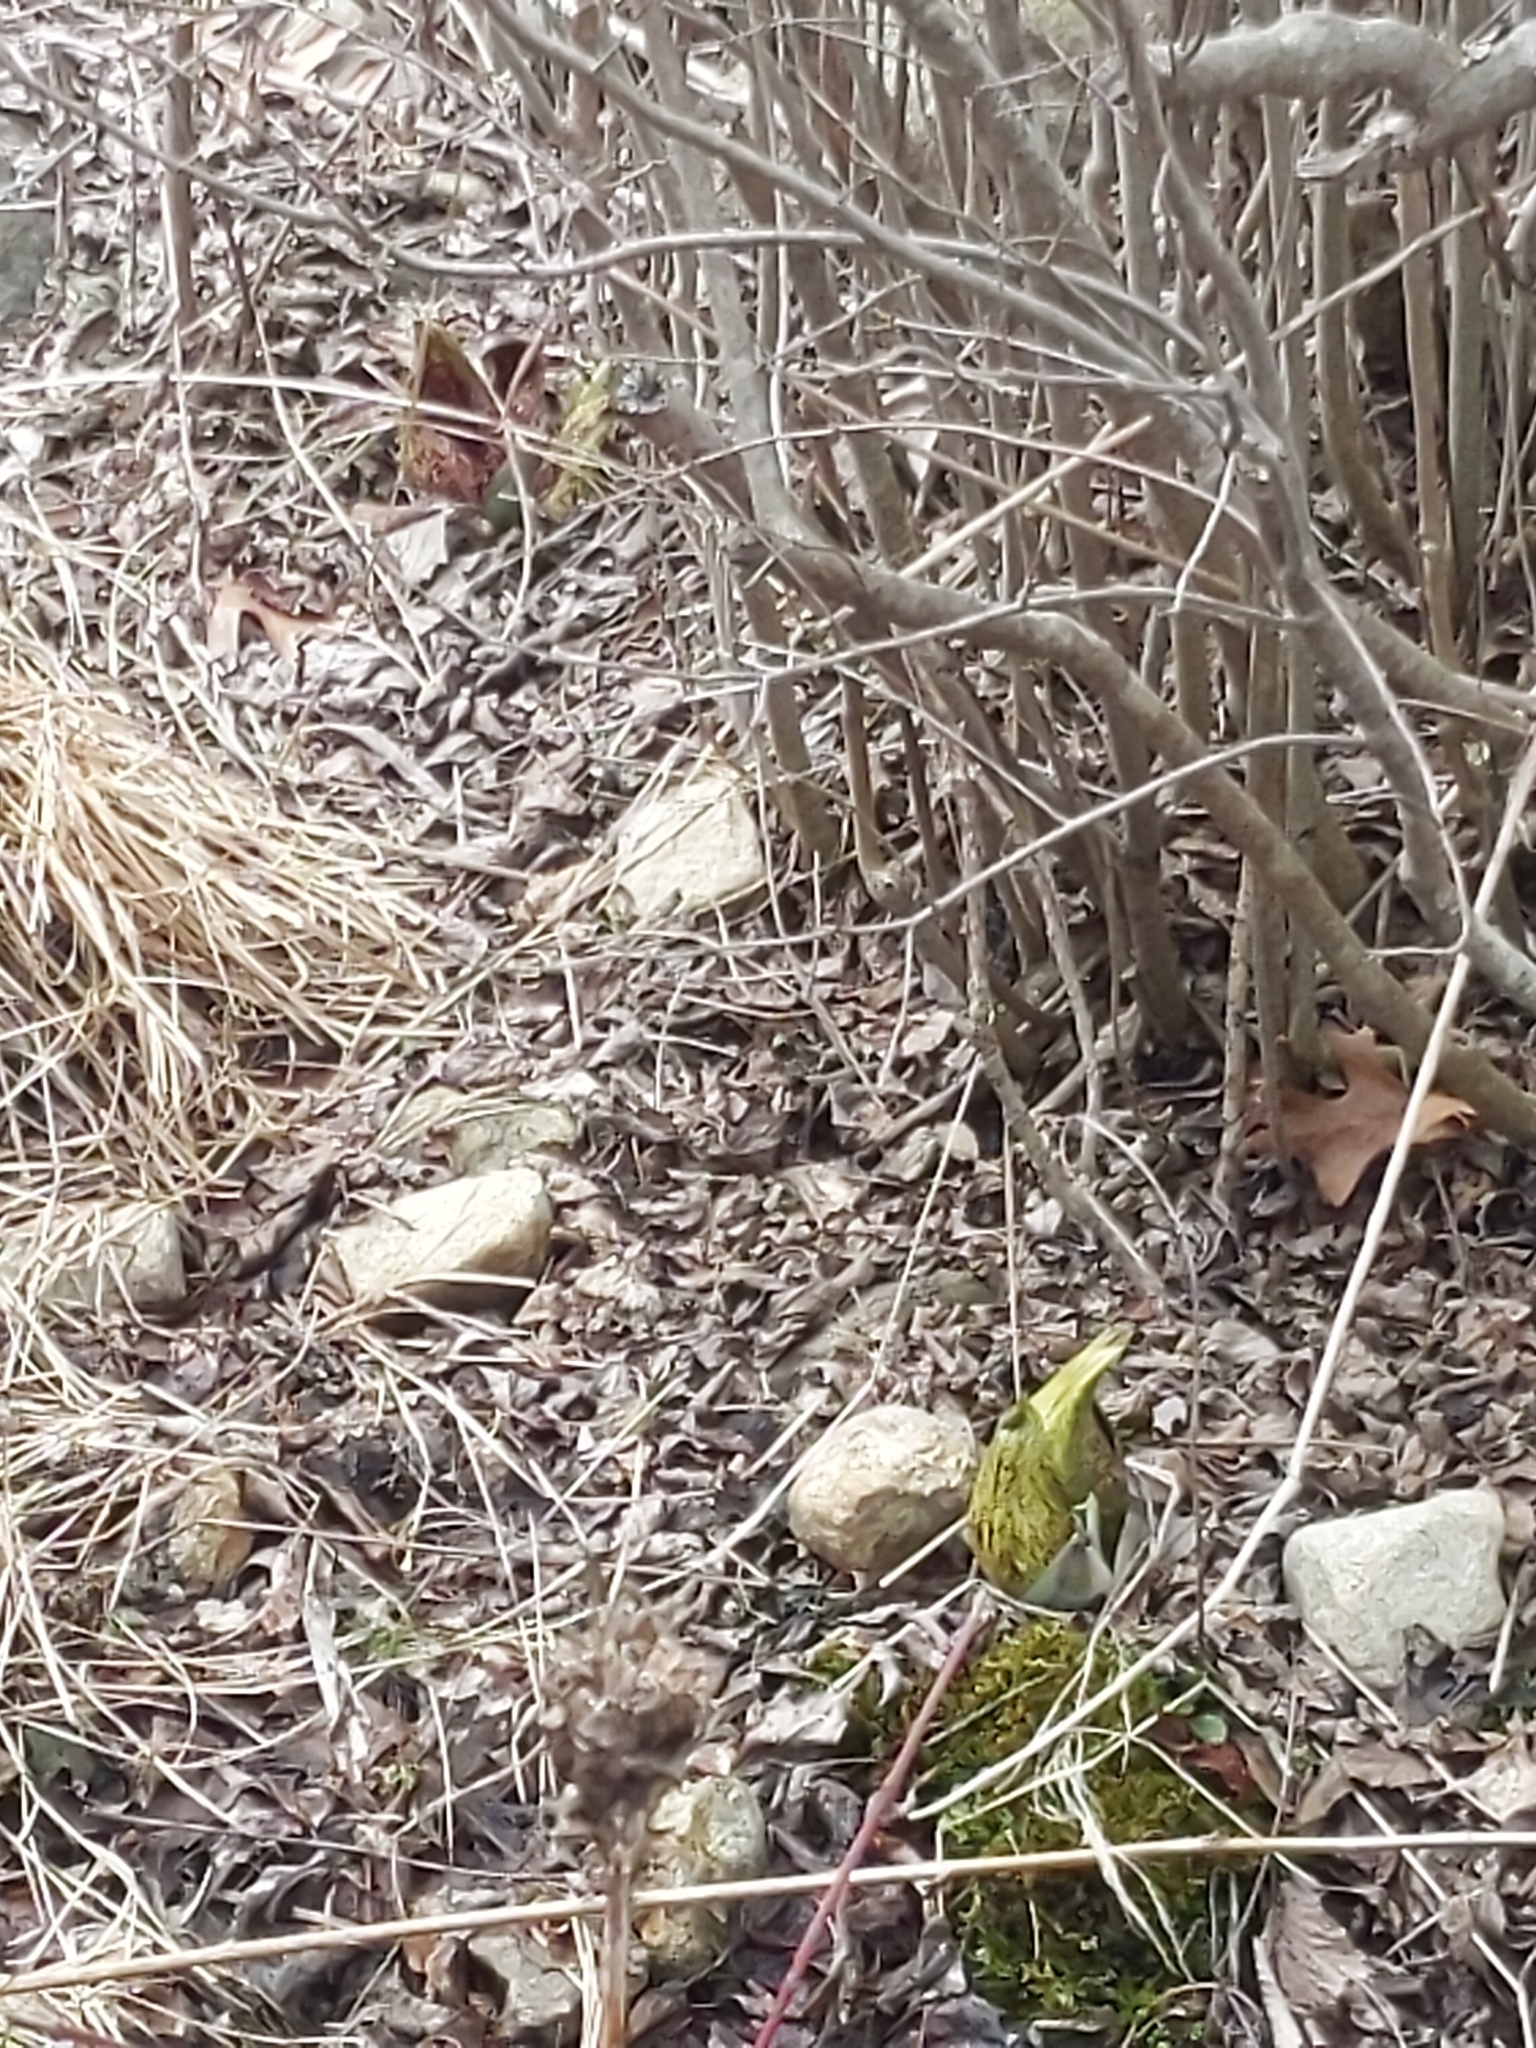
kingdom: Plantae
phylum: Tracheophyta
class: Liliopsida
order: Alismatales
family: Araceae
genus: Symplocarpus
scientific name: Symplocarpus foetidus
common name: Eastern skunk cabbage
